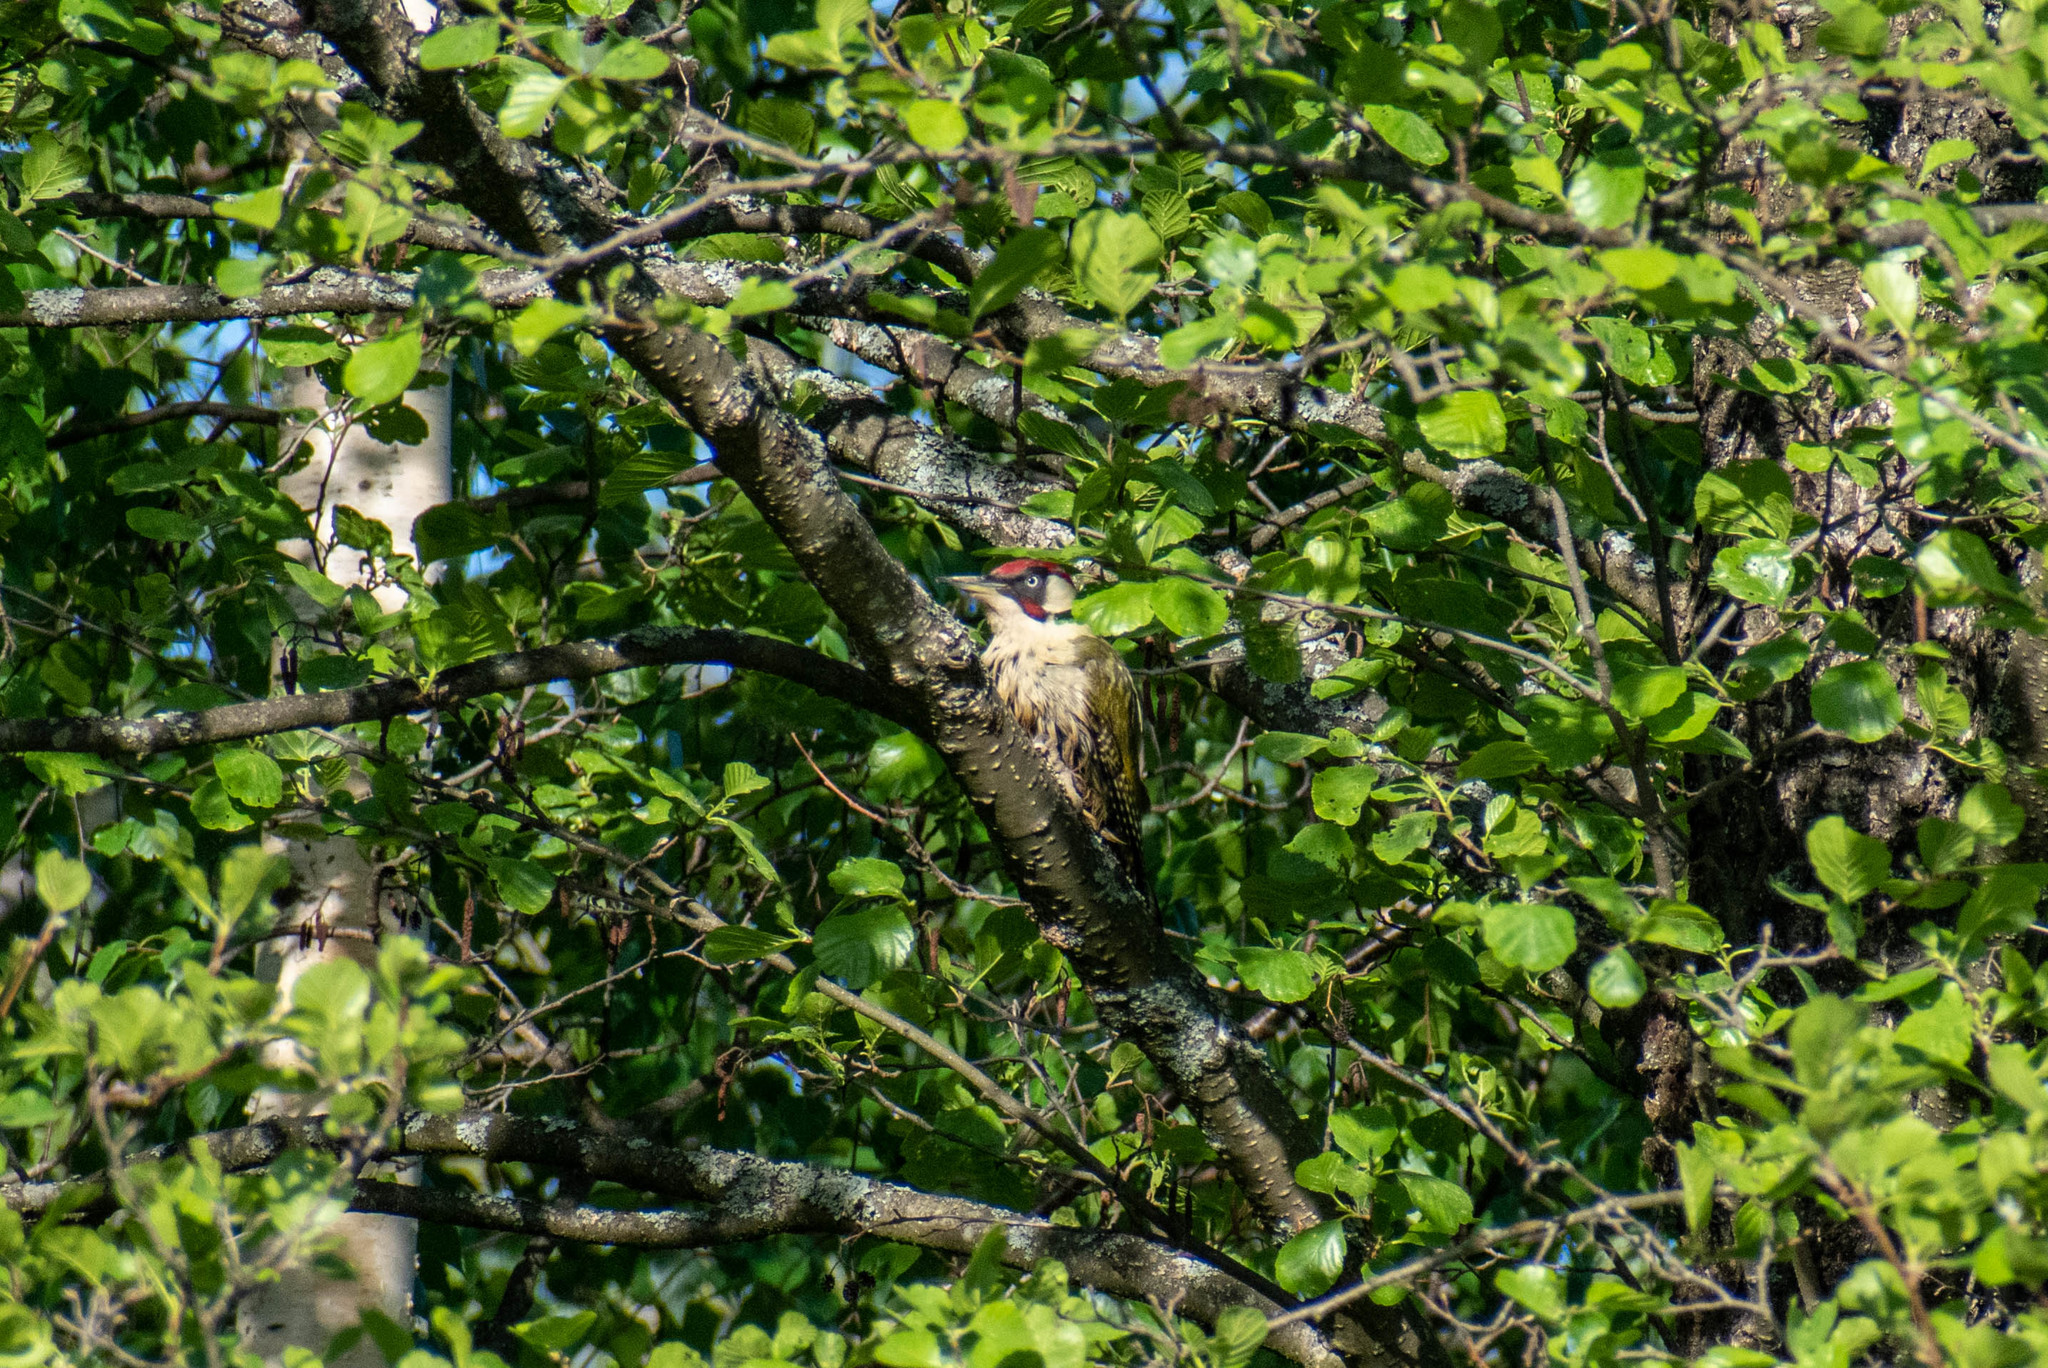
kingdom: Animalia
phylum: Chordata
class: Aves
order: Piciformes
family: Picidae
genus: Picus
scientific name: Picus viridis
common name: European green woodpecker
